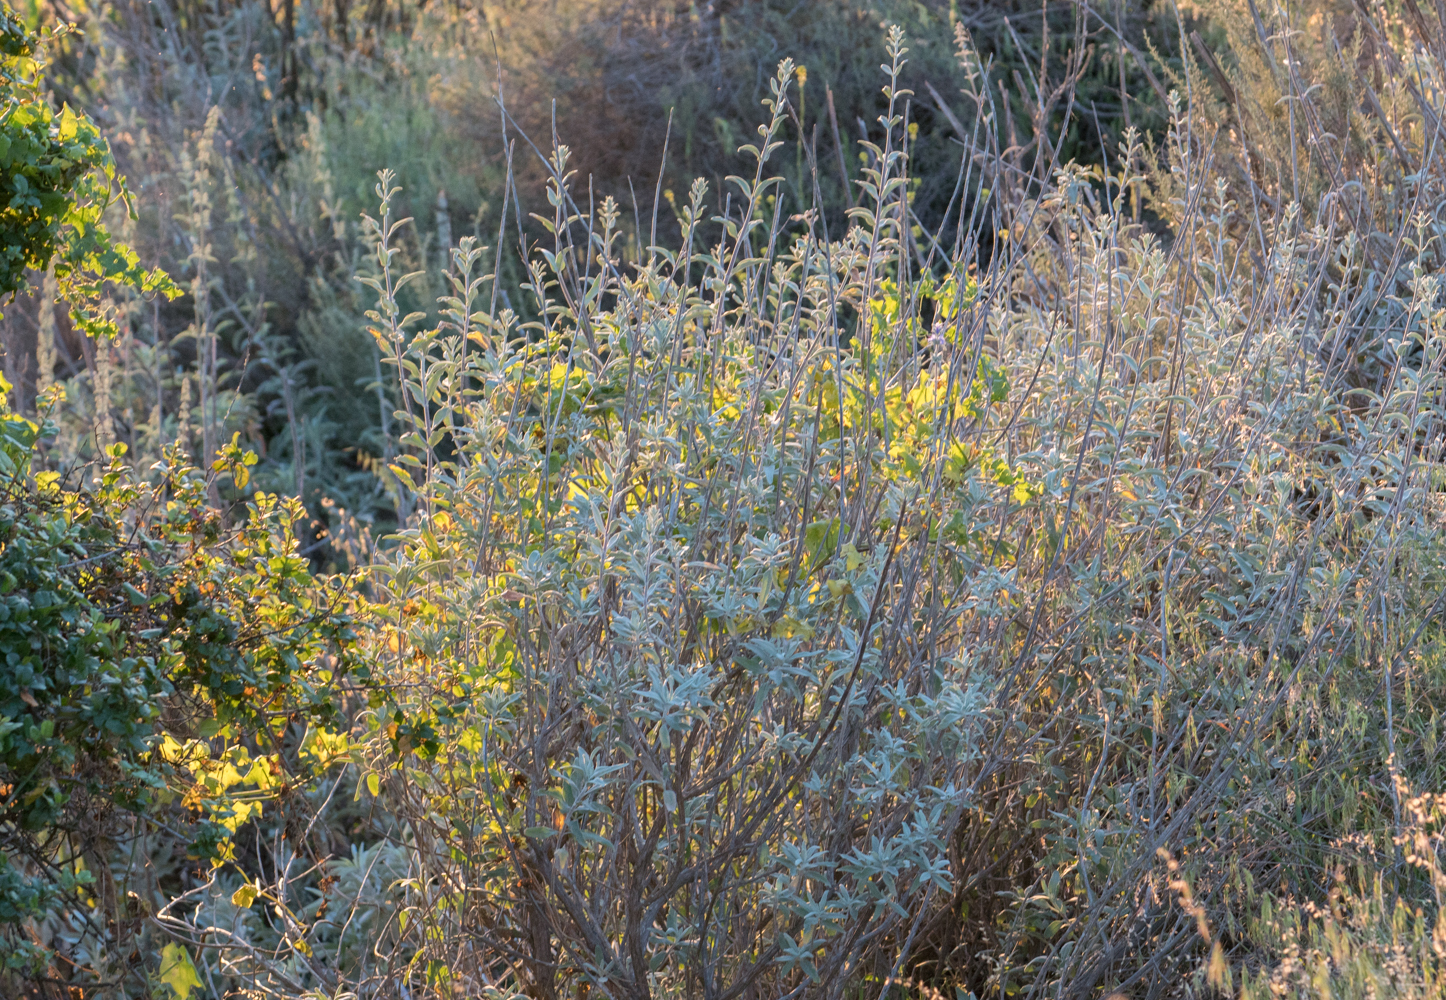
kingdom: Plantae
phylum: Tracheophyta
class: Magnoliopsida
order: Lamiales
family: Lamiaceae
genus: Salvia
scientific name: Salvia apiana
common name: White sage
